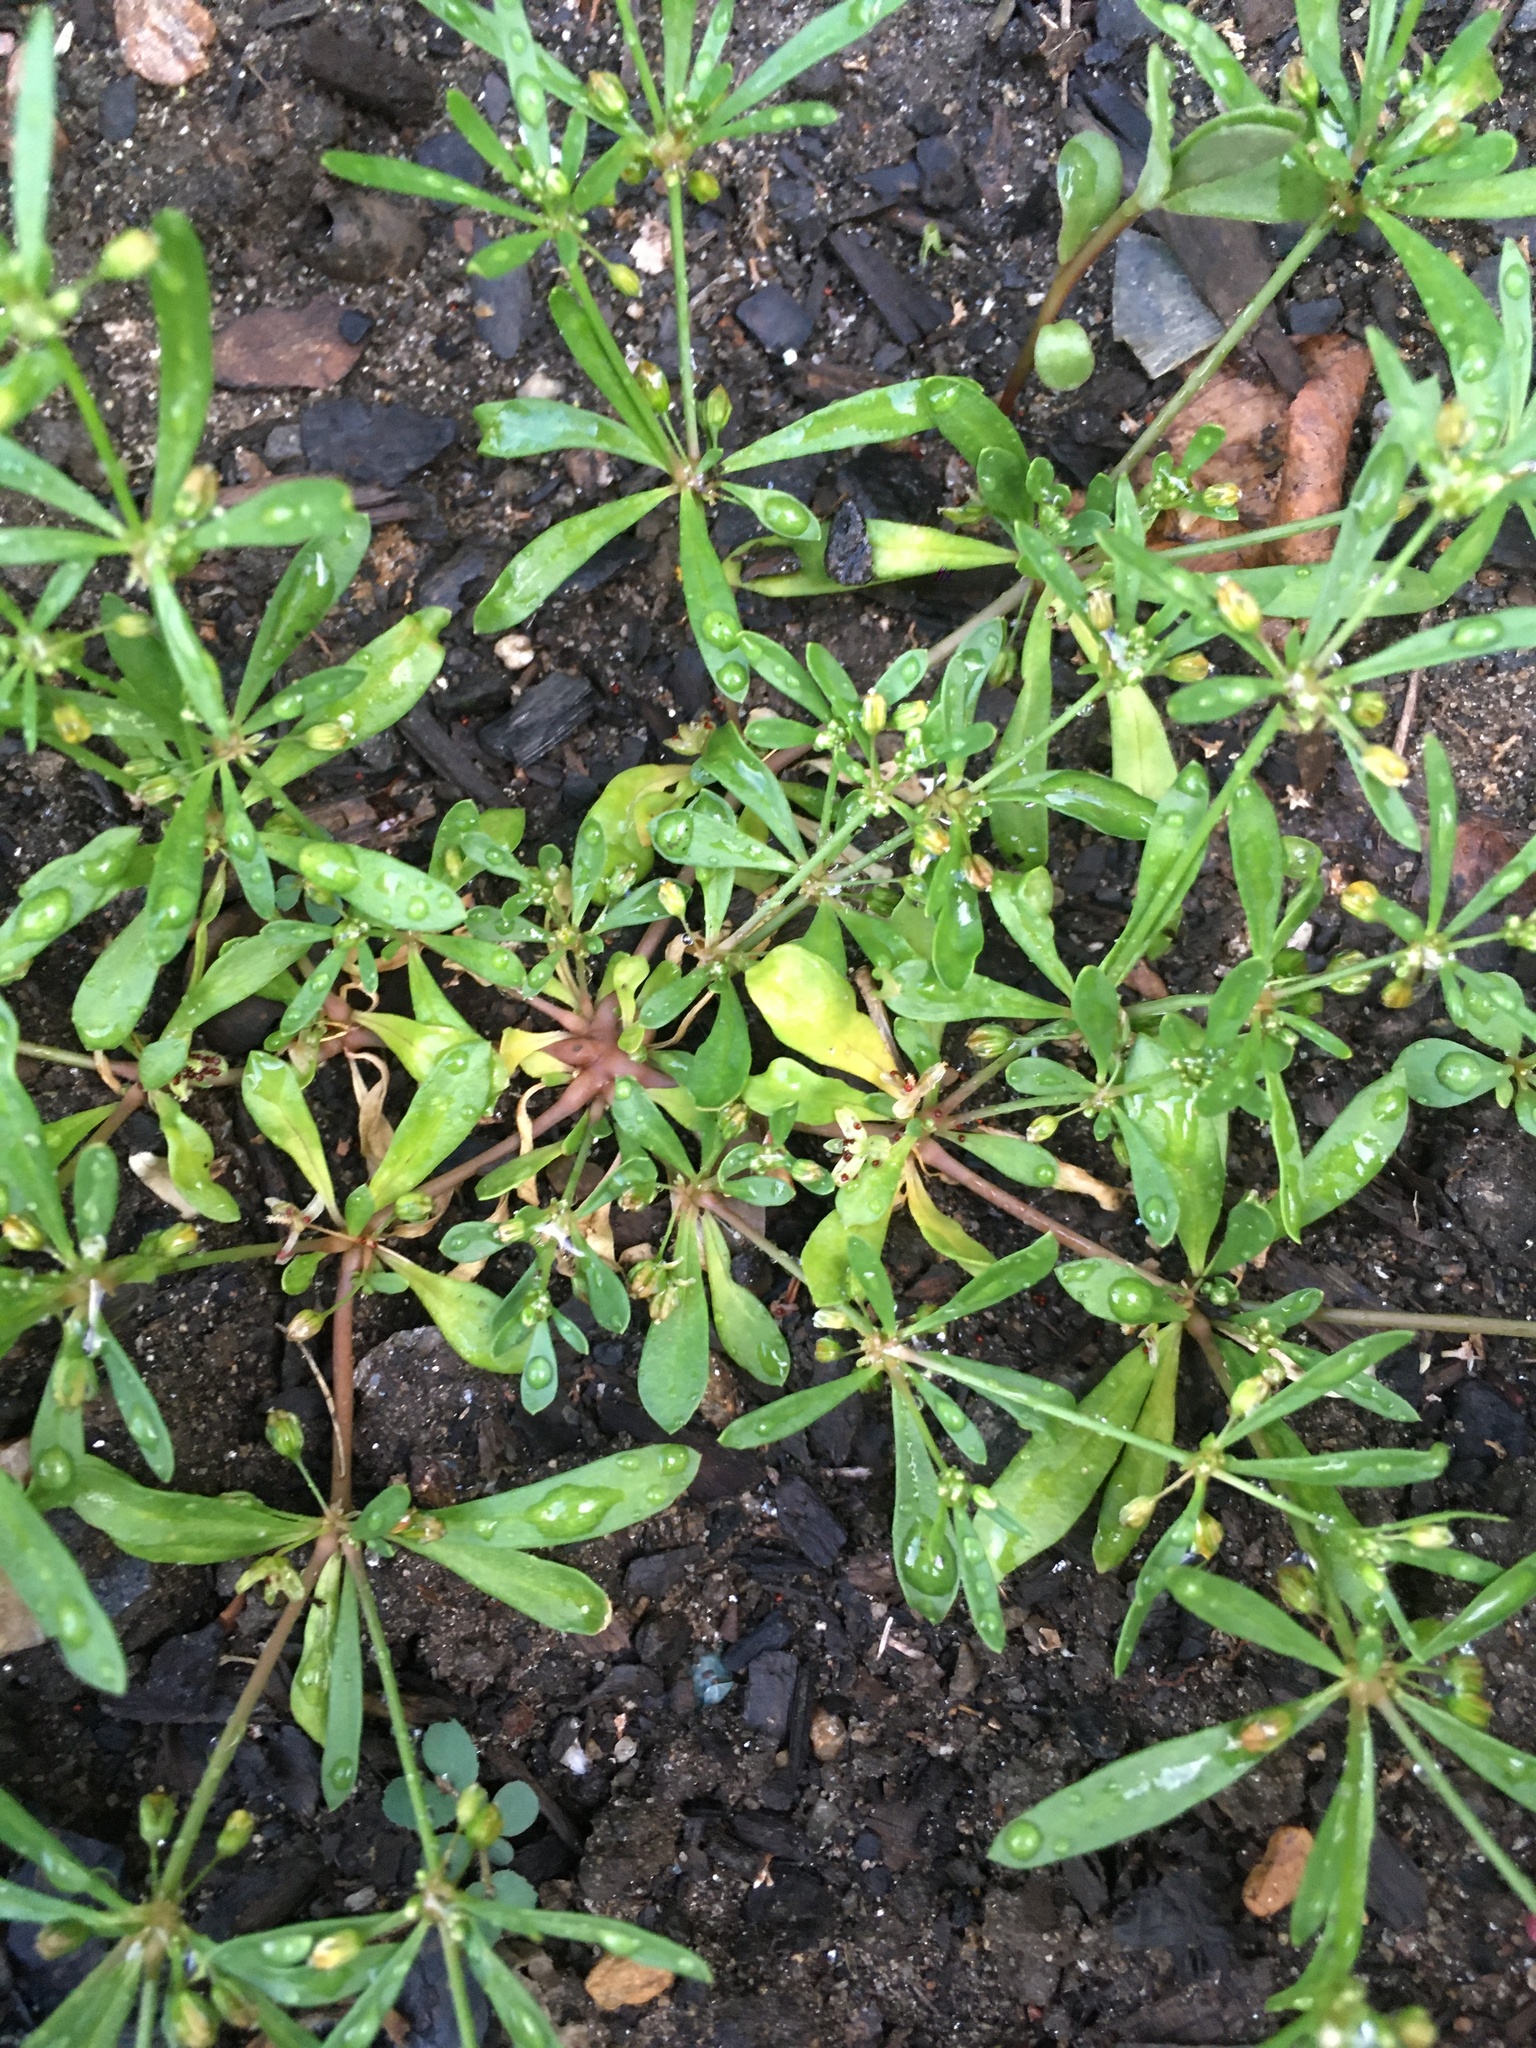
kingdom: Plantae
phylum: Tracheophyta
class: Magnoliopsida
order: Caryophyllales
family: Molluginaceae
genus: Mollugo
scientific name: Mollugo verticillata
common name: Green carpetweed
